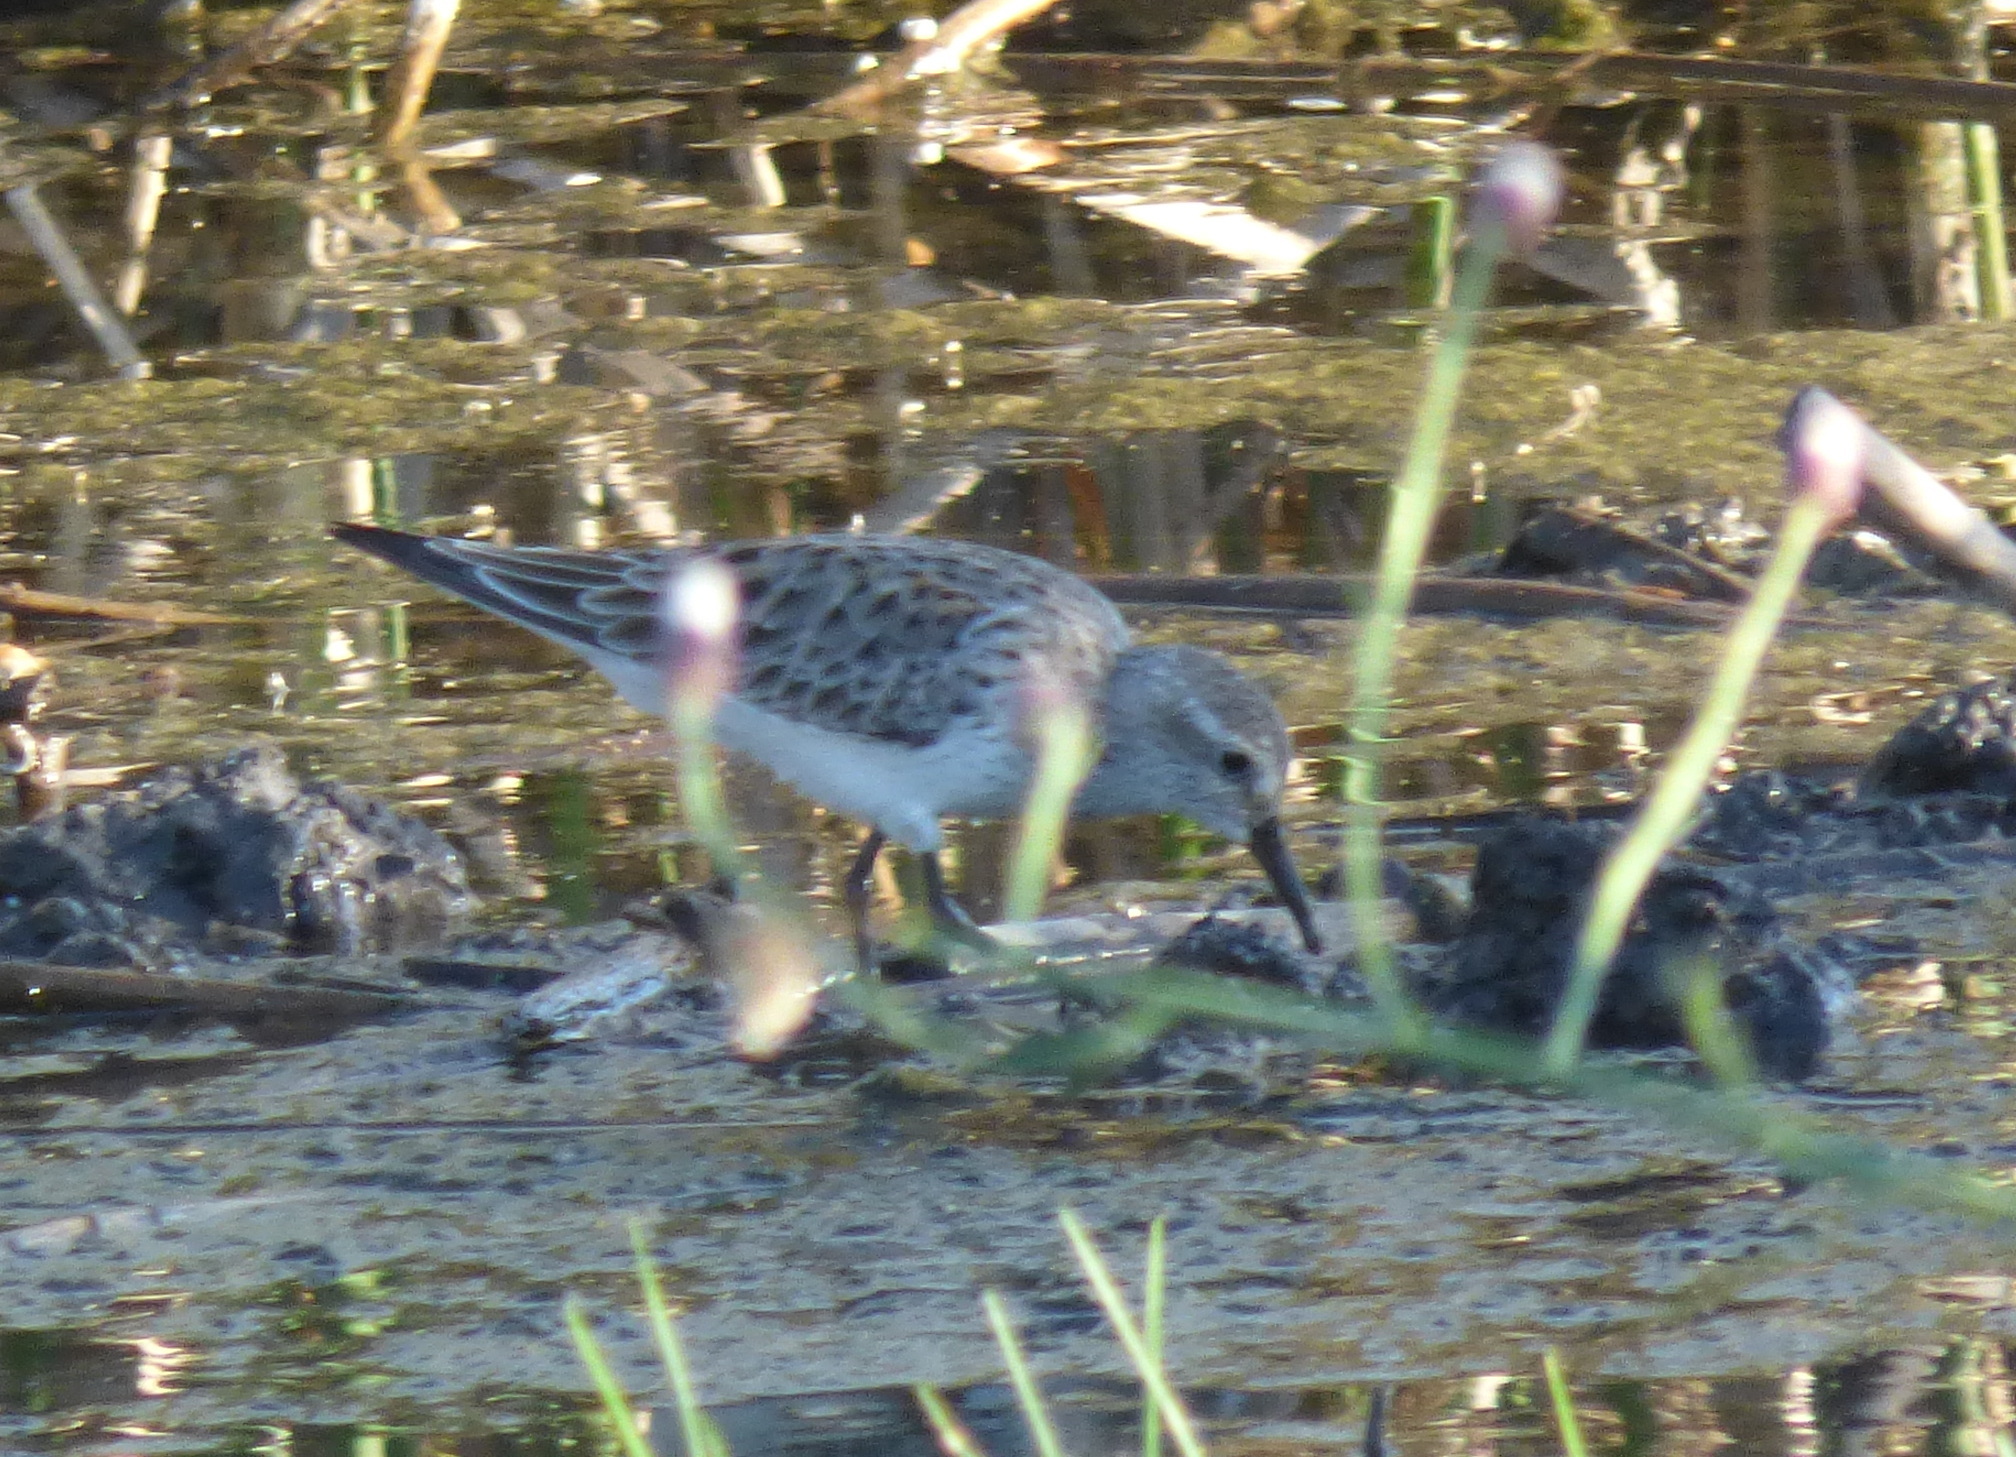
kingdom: Animalia
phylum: Chordata
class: Aves
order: Charadriiformes
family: Scolopacidae
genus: Calidris
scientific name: Calidris bairdii
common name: Baird's sandpiper
